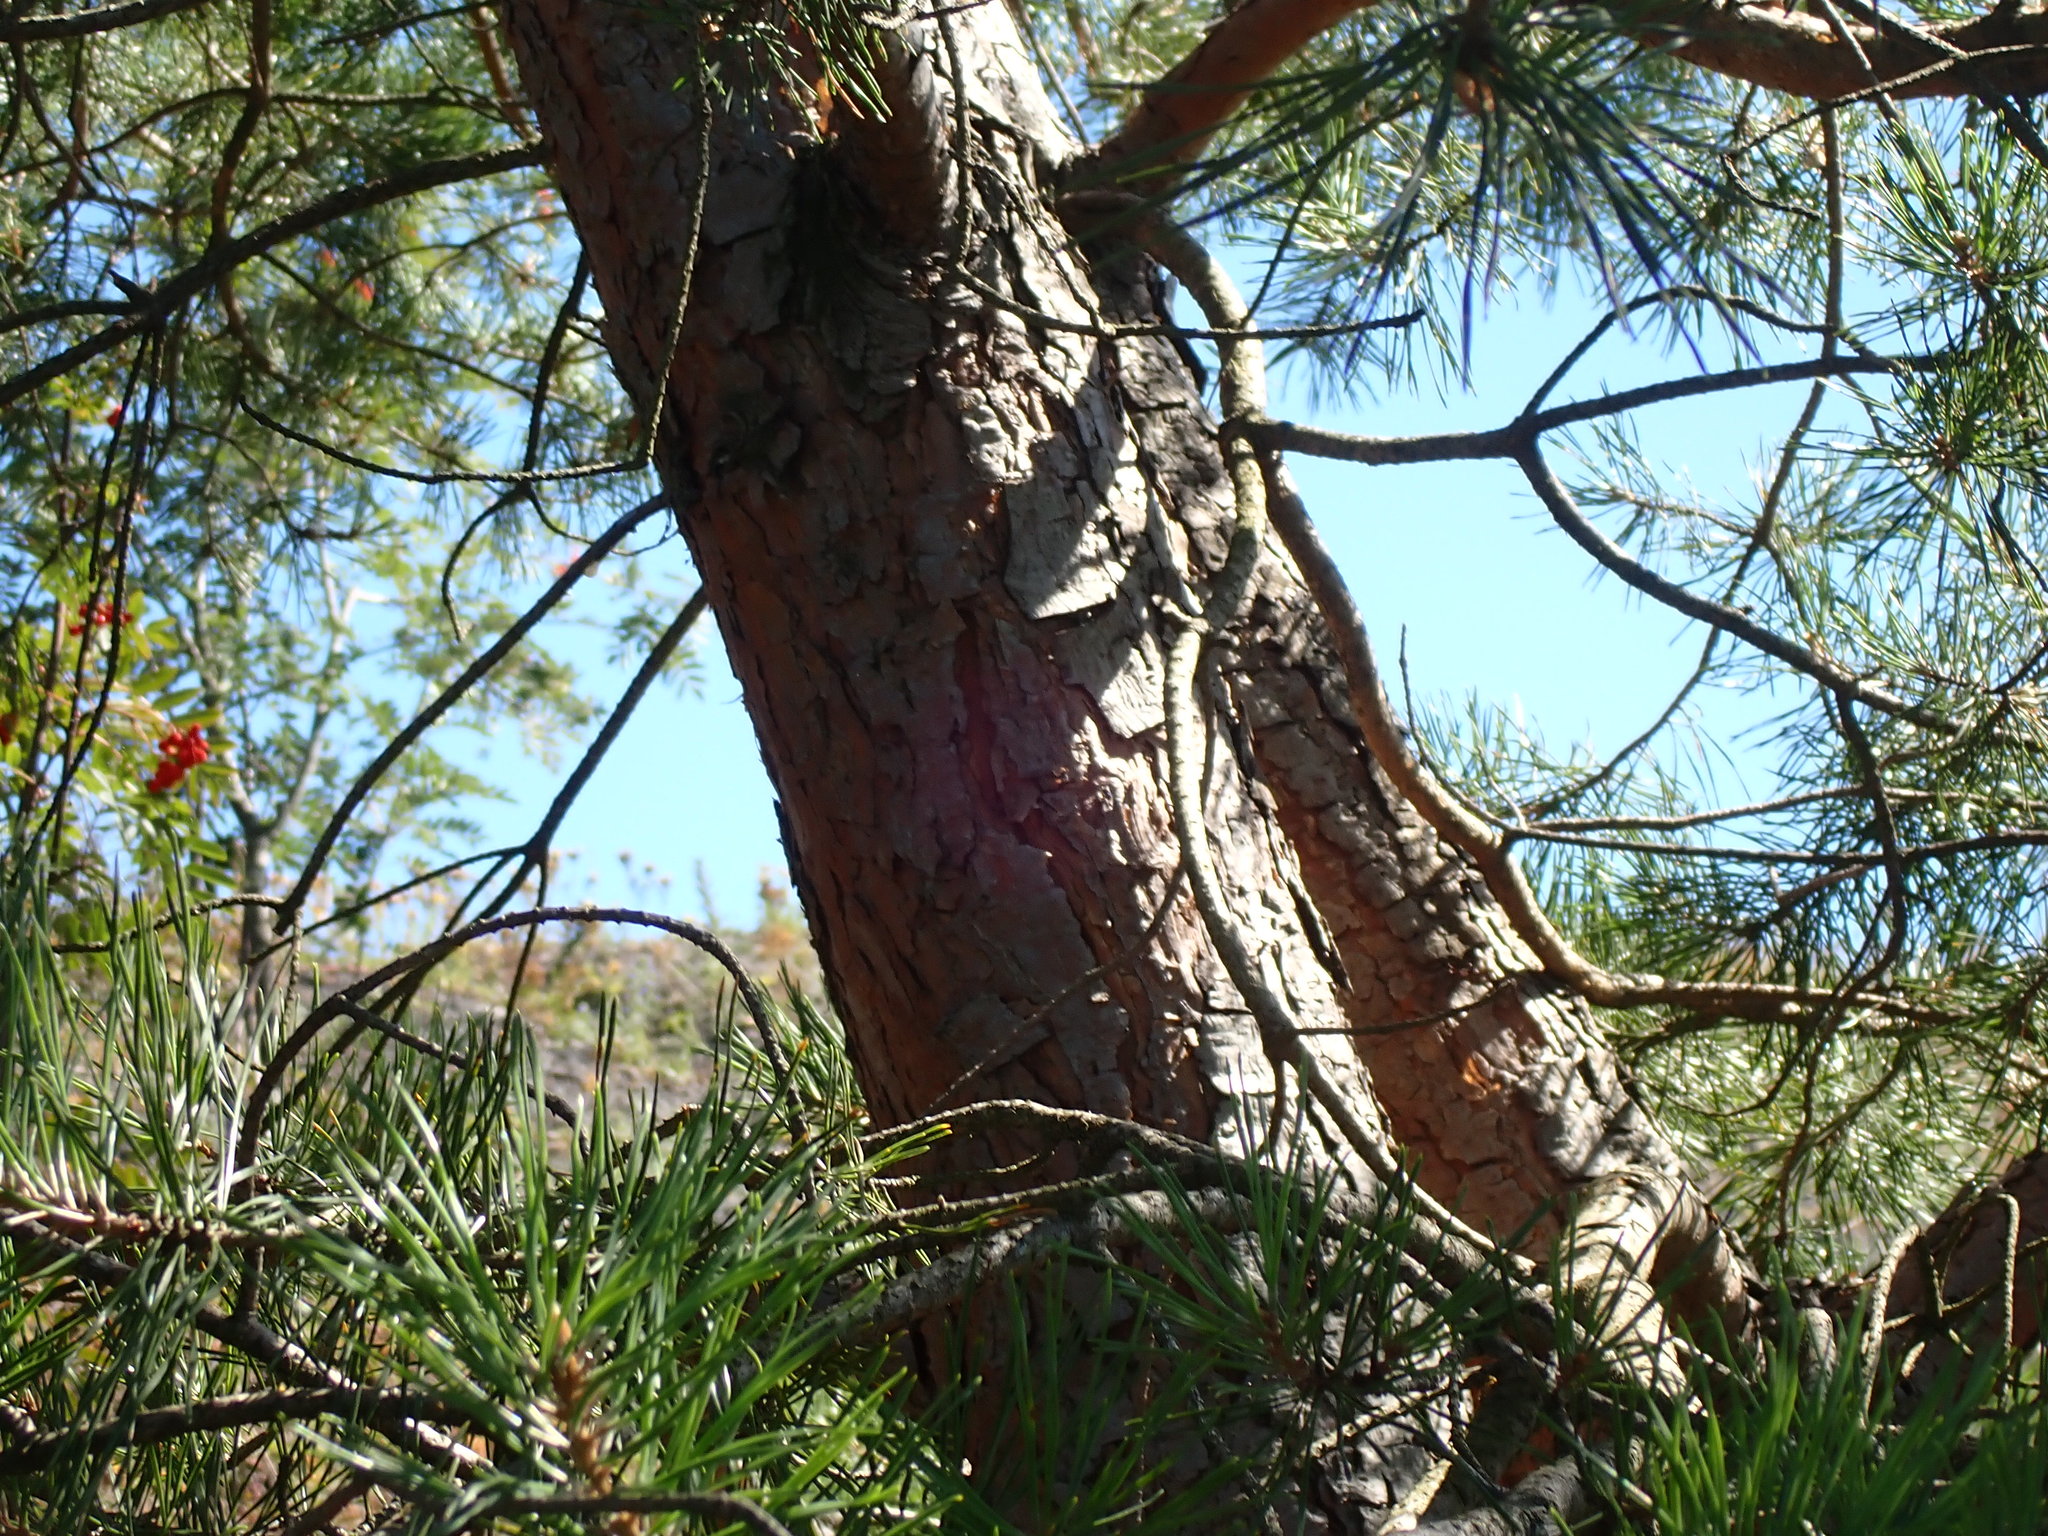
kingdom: Plantae
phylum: Tracheophyta
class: Pinopsida
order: Pinales
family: Pinaceae
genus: Pinus
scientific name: Pinus sylvestris
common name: Scots pine
